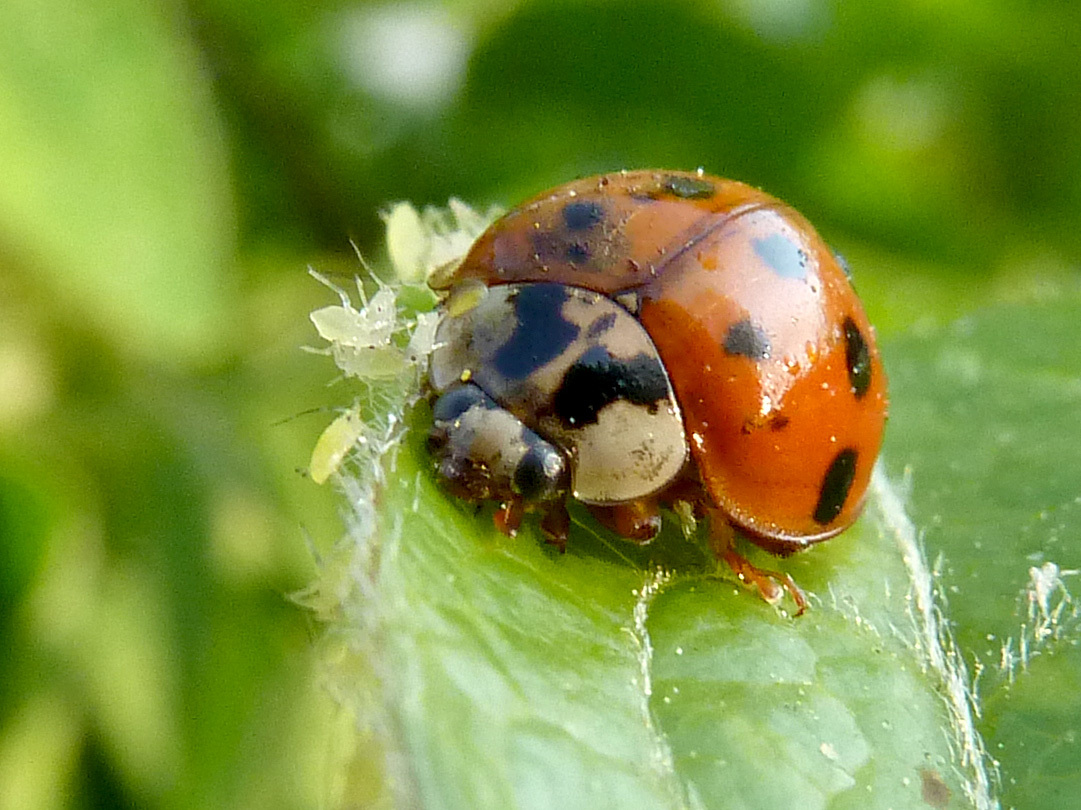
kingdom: Animalia
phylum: Arthropoda
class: Insecta
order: Coleoptera
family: Coccinellidae
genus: Harmonia
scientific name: Harmonia axyridis
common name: Harlequin ladybird
